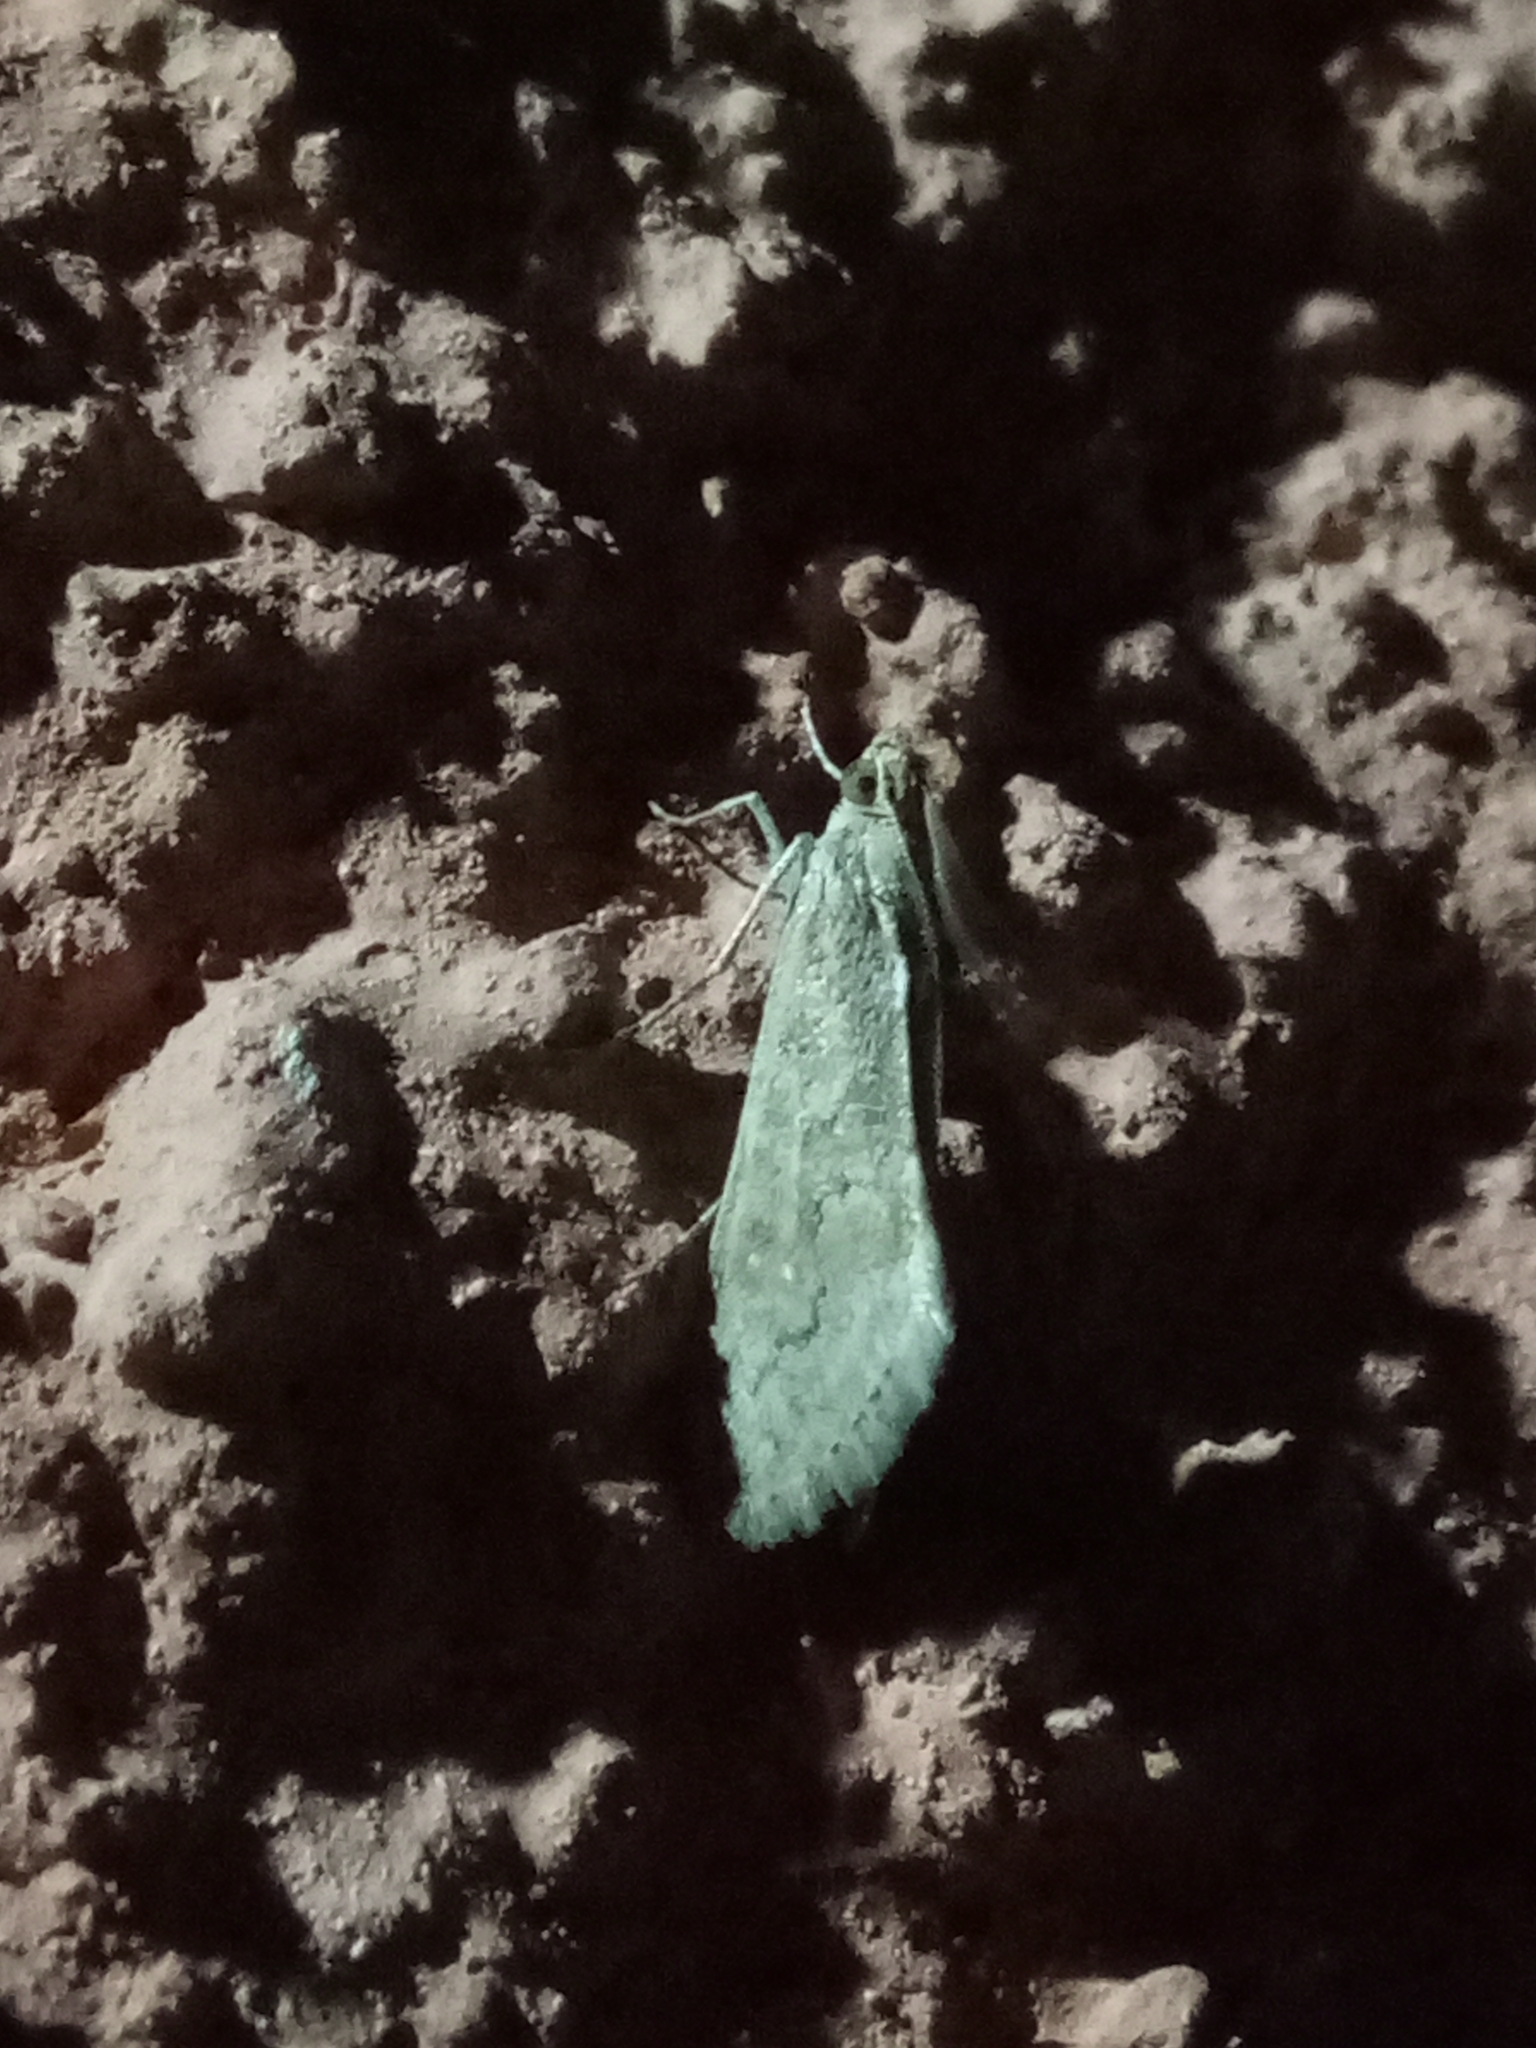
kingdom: Animalia
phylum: Arthropoda
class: Insecta
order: Lepidoptera
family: Crambidae
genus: Cornifrons
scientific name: Cornifrons ulceratalis
